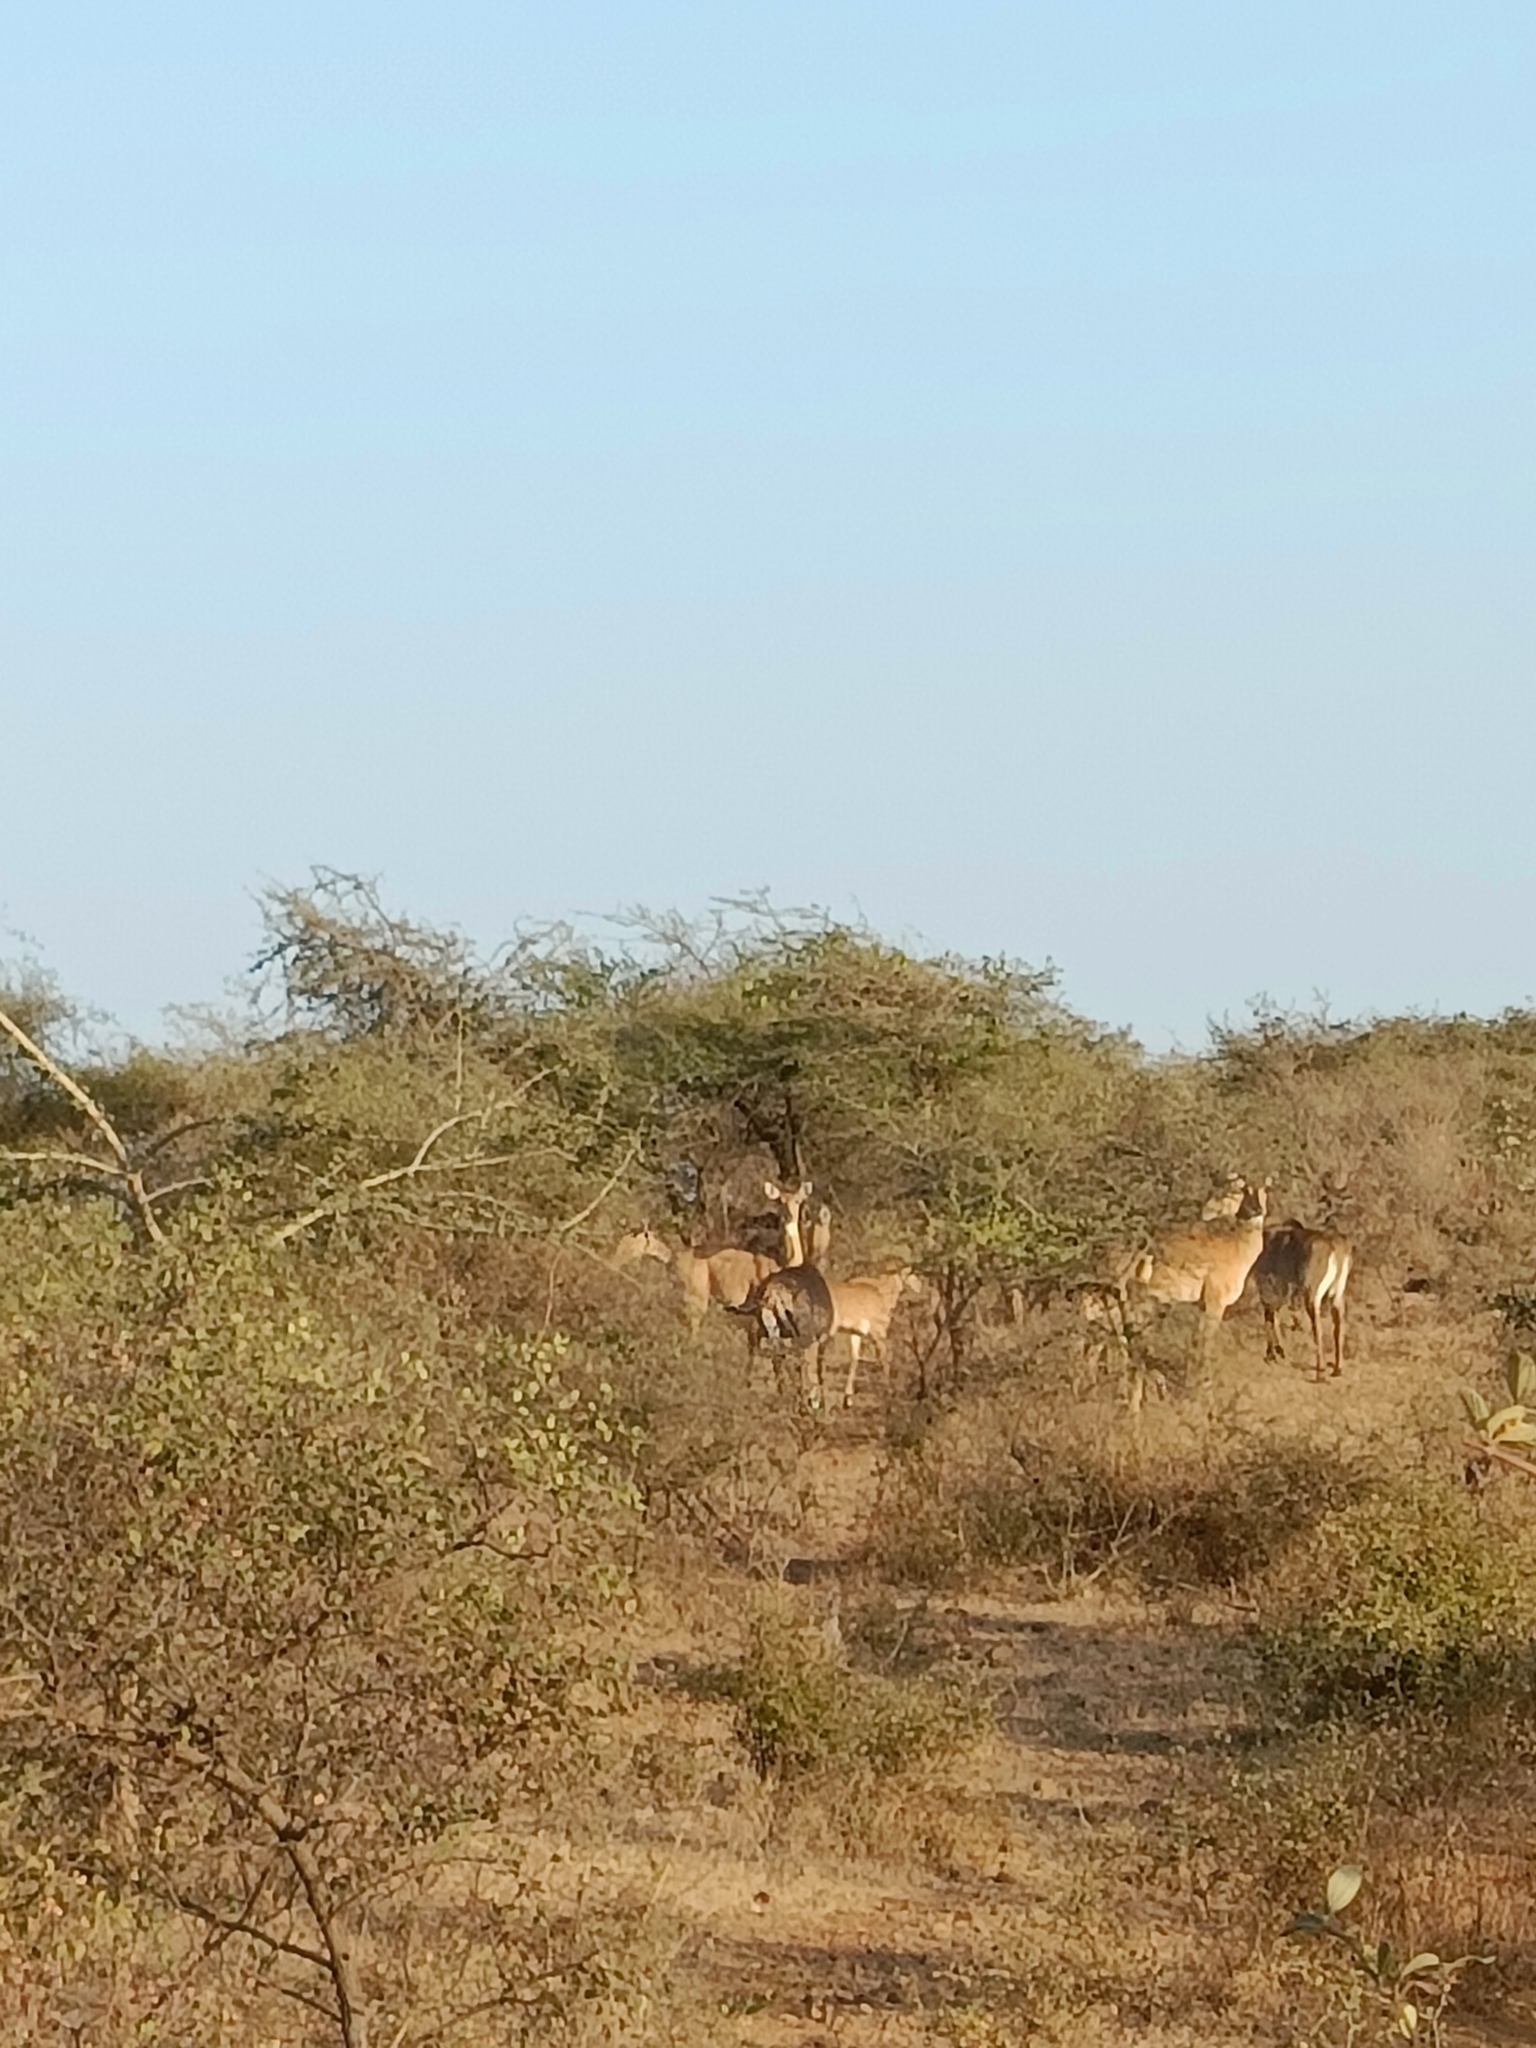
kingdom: Animalia
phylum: Chordata
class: Mammalia
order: Artiodactyla
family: Bovidae
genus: Boselaphus
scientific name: Boselaphus tragocamelus
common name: Nilgai
